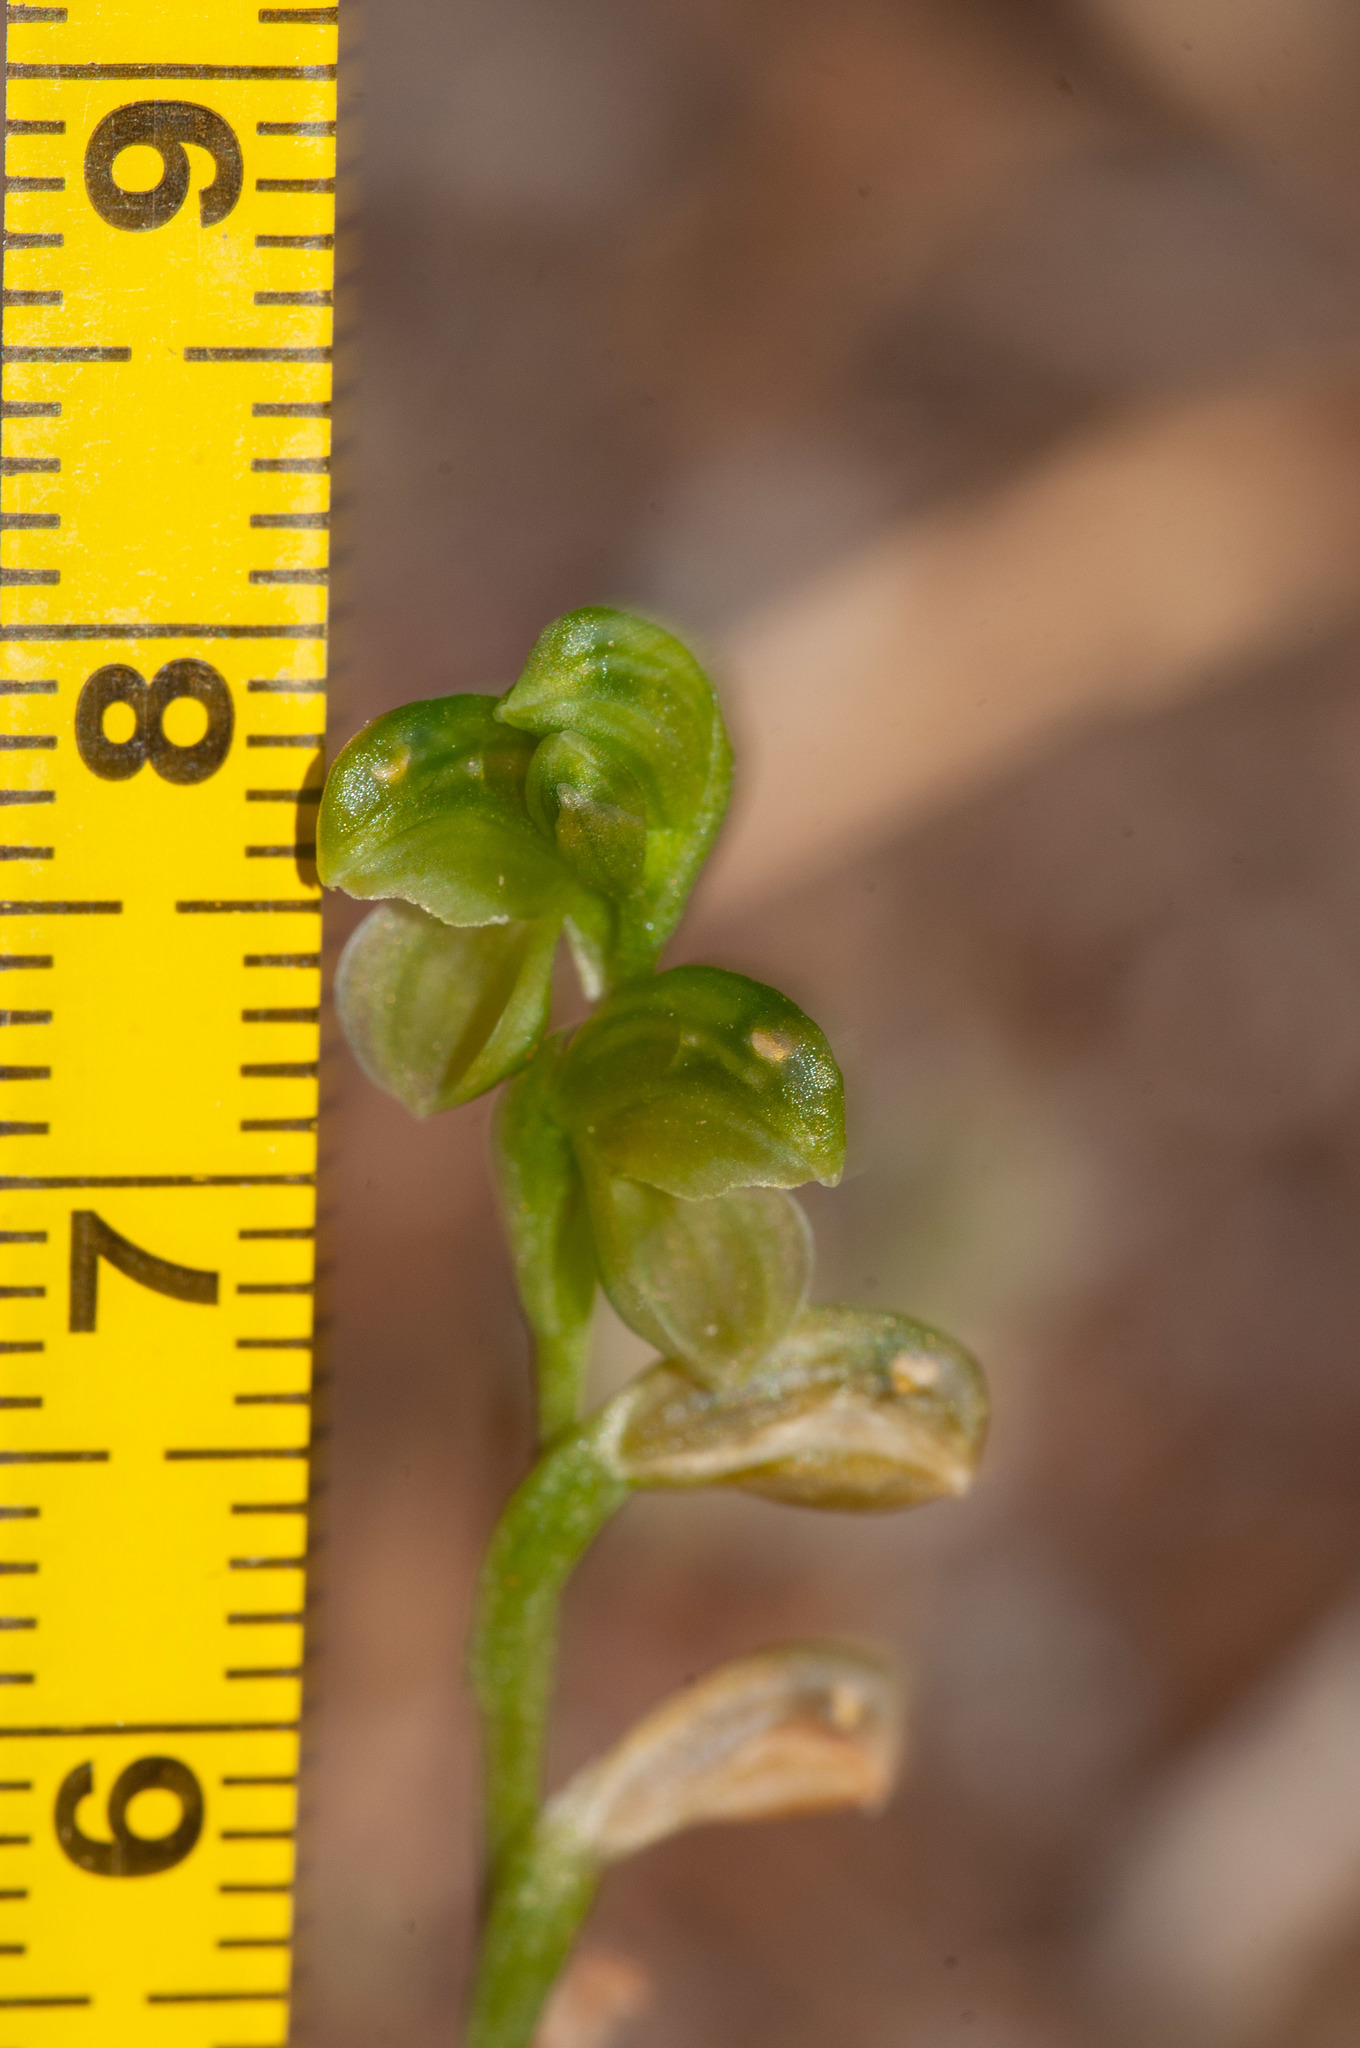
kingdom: Plantae
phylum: Tracheophyta
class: Liliopsida
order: Asparagales
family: Orchidaceae
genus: Pterostylis
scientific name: Pterostylis mutica
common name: Midget greenhood
